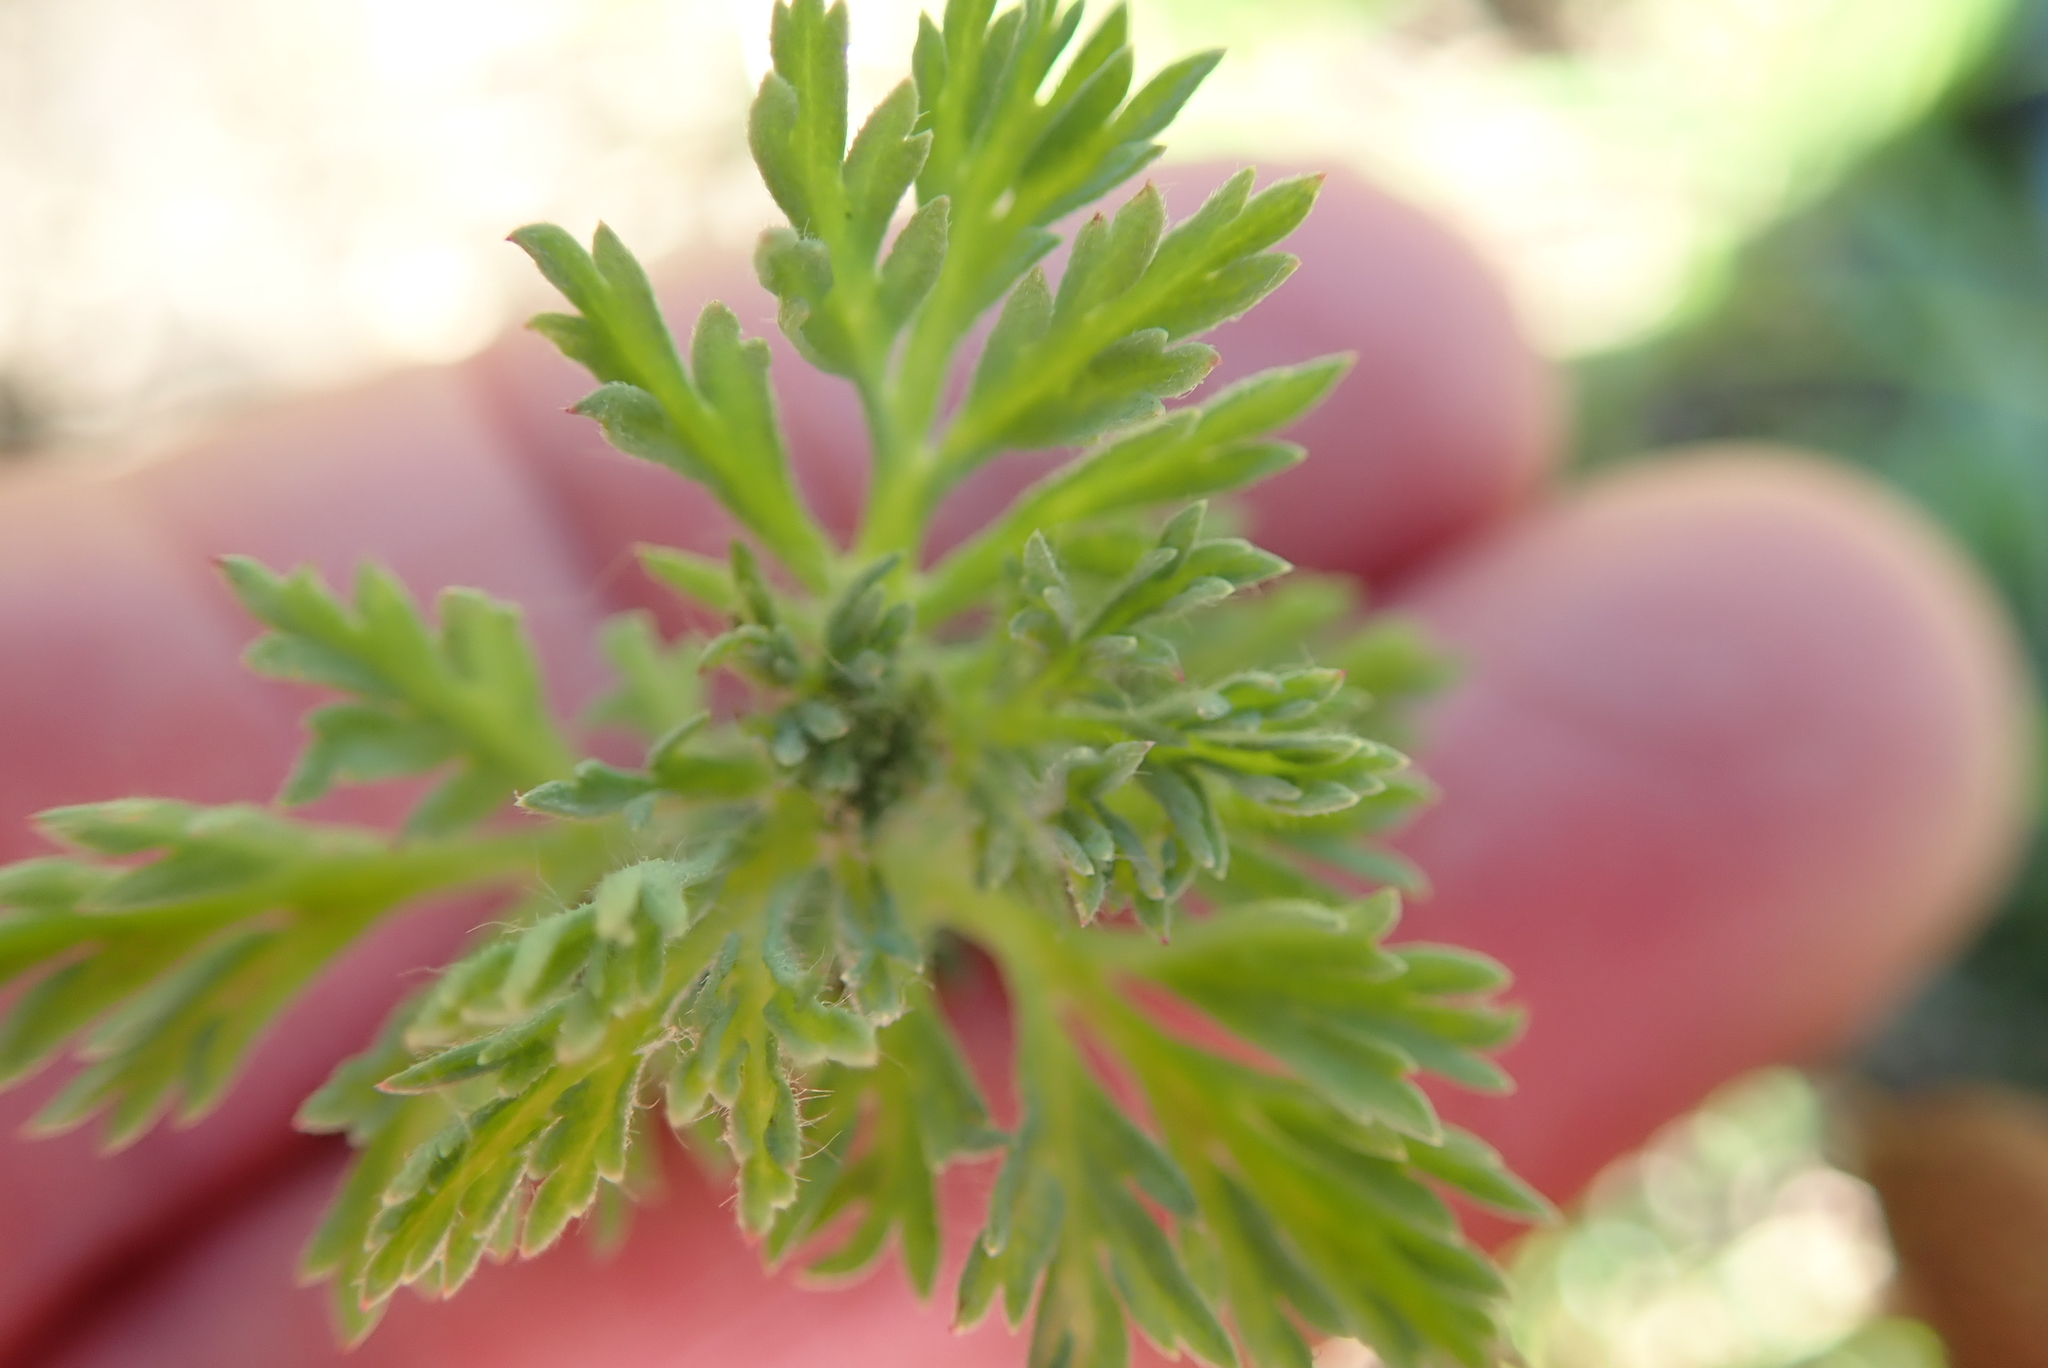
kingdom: Plantae
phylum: Tracheophyta
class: Magnoliopsida
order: Asterales
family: Asteraceae
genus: Cotula
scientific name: Cotula nigellifolia
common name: Staggerweed
